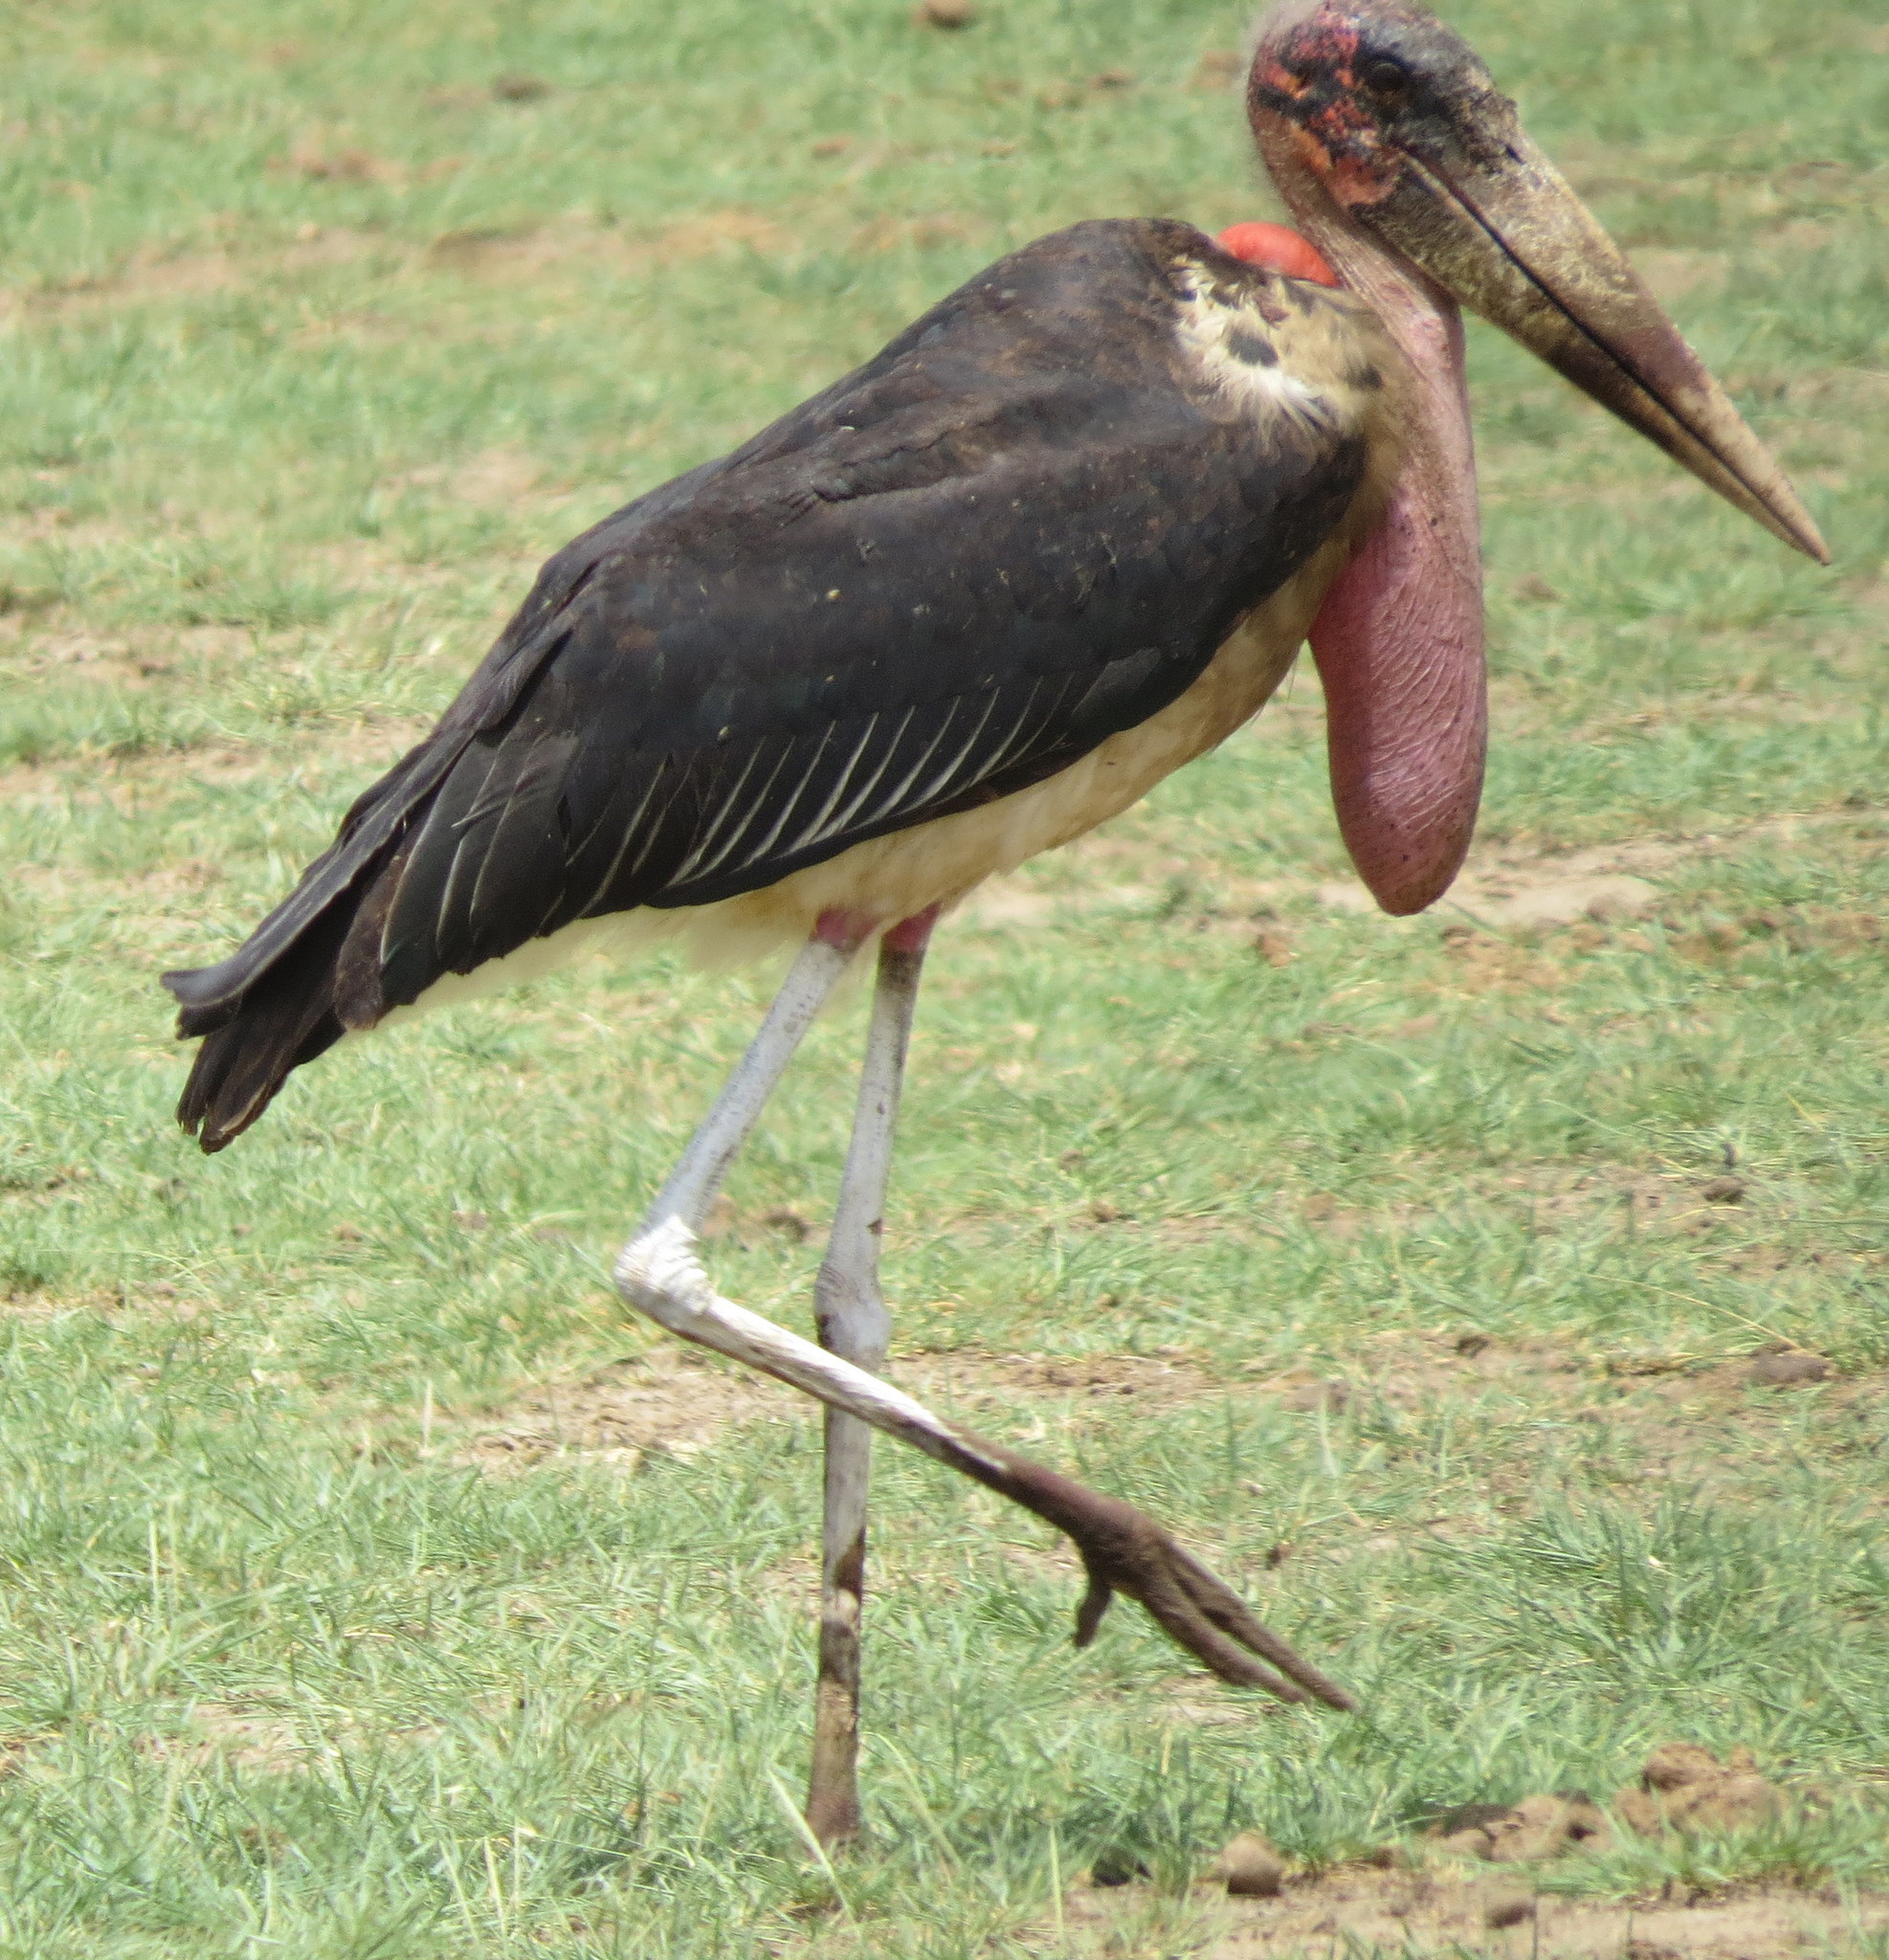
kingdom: Animalia
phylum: Chordata
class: Aves
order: Ciconiiformes
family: Ciconiidae
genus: Leptoptilos
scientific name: Leptoptilos crumenifer
